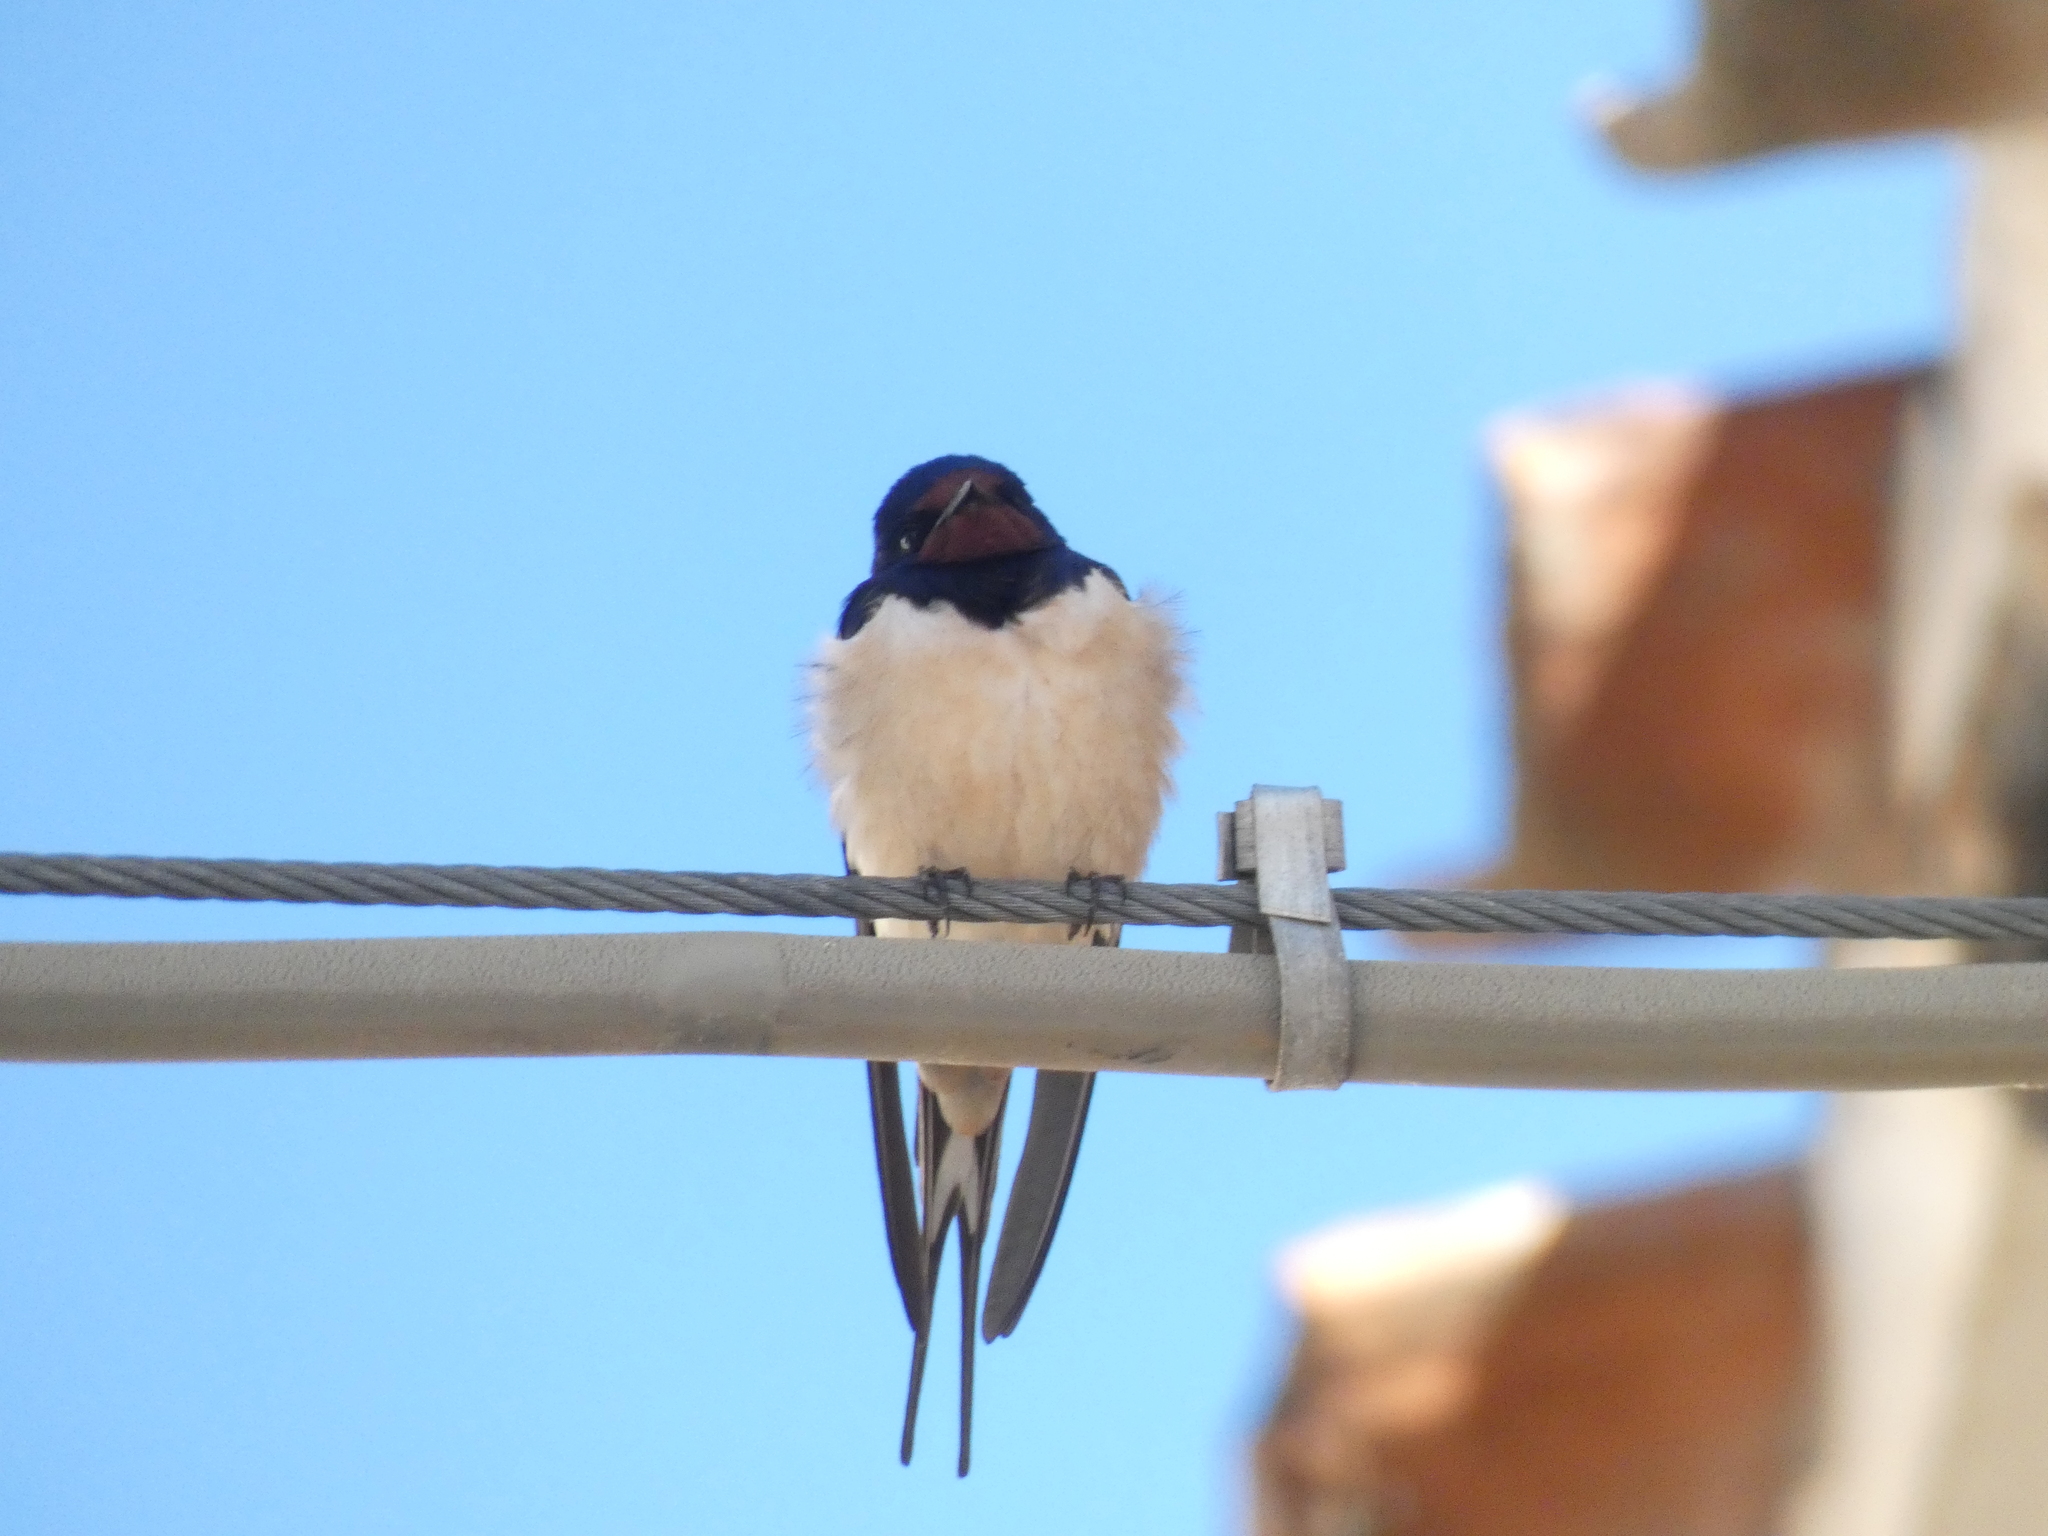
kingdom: Animalia
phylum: Chordata
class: Aves
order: Passeriformes
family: Hirundinidae
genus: Hirundo
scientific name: Hirundo rustica
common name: Barn swallow
